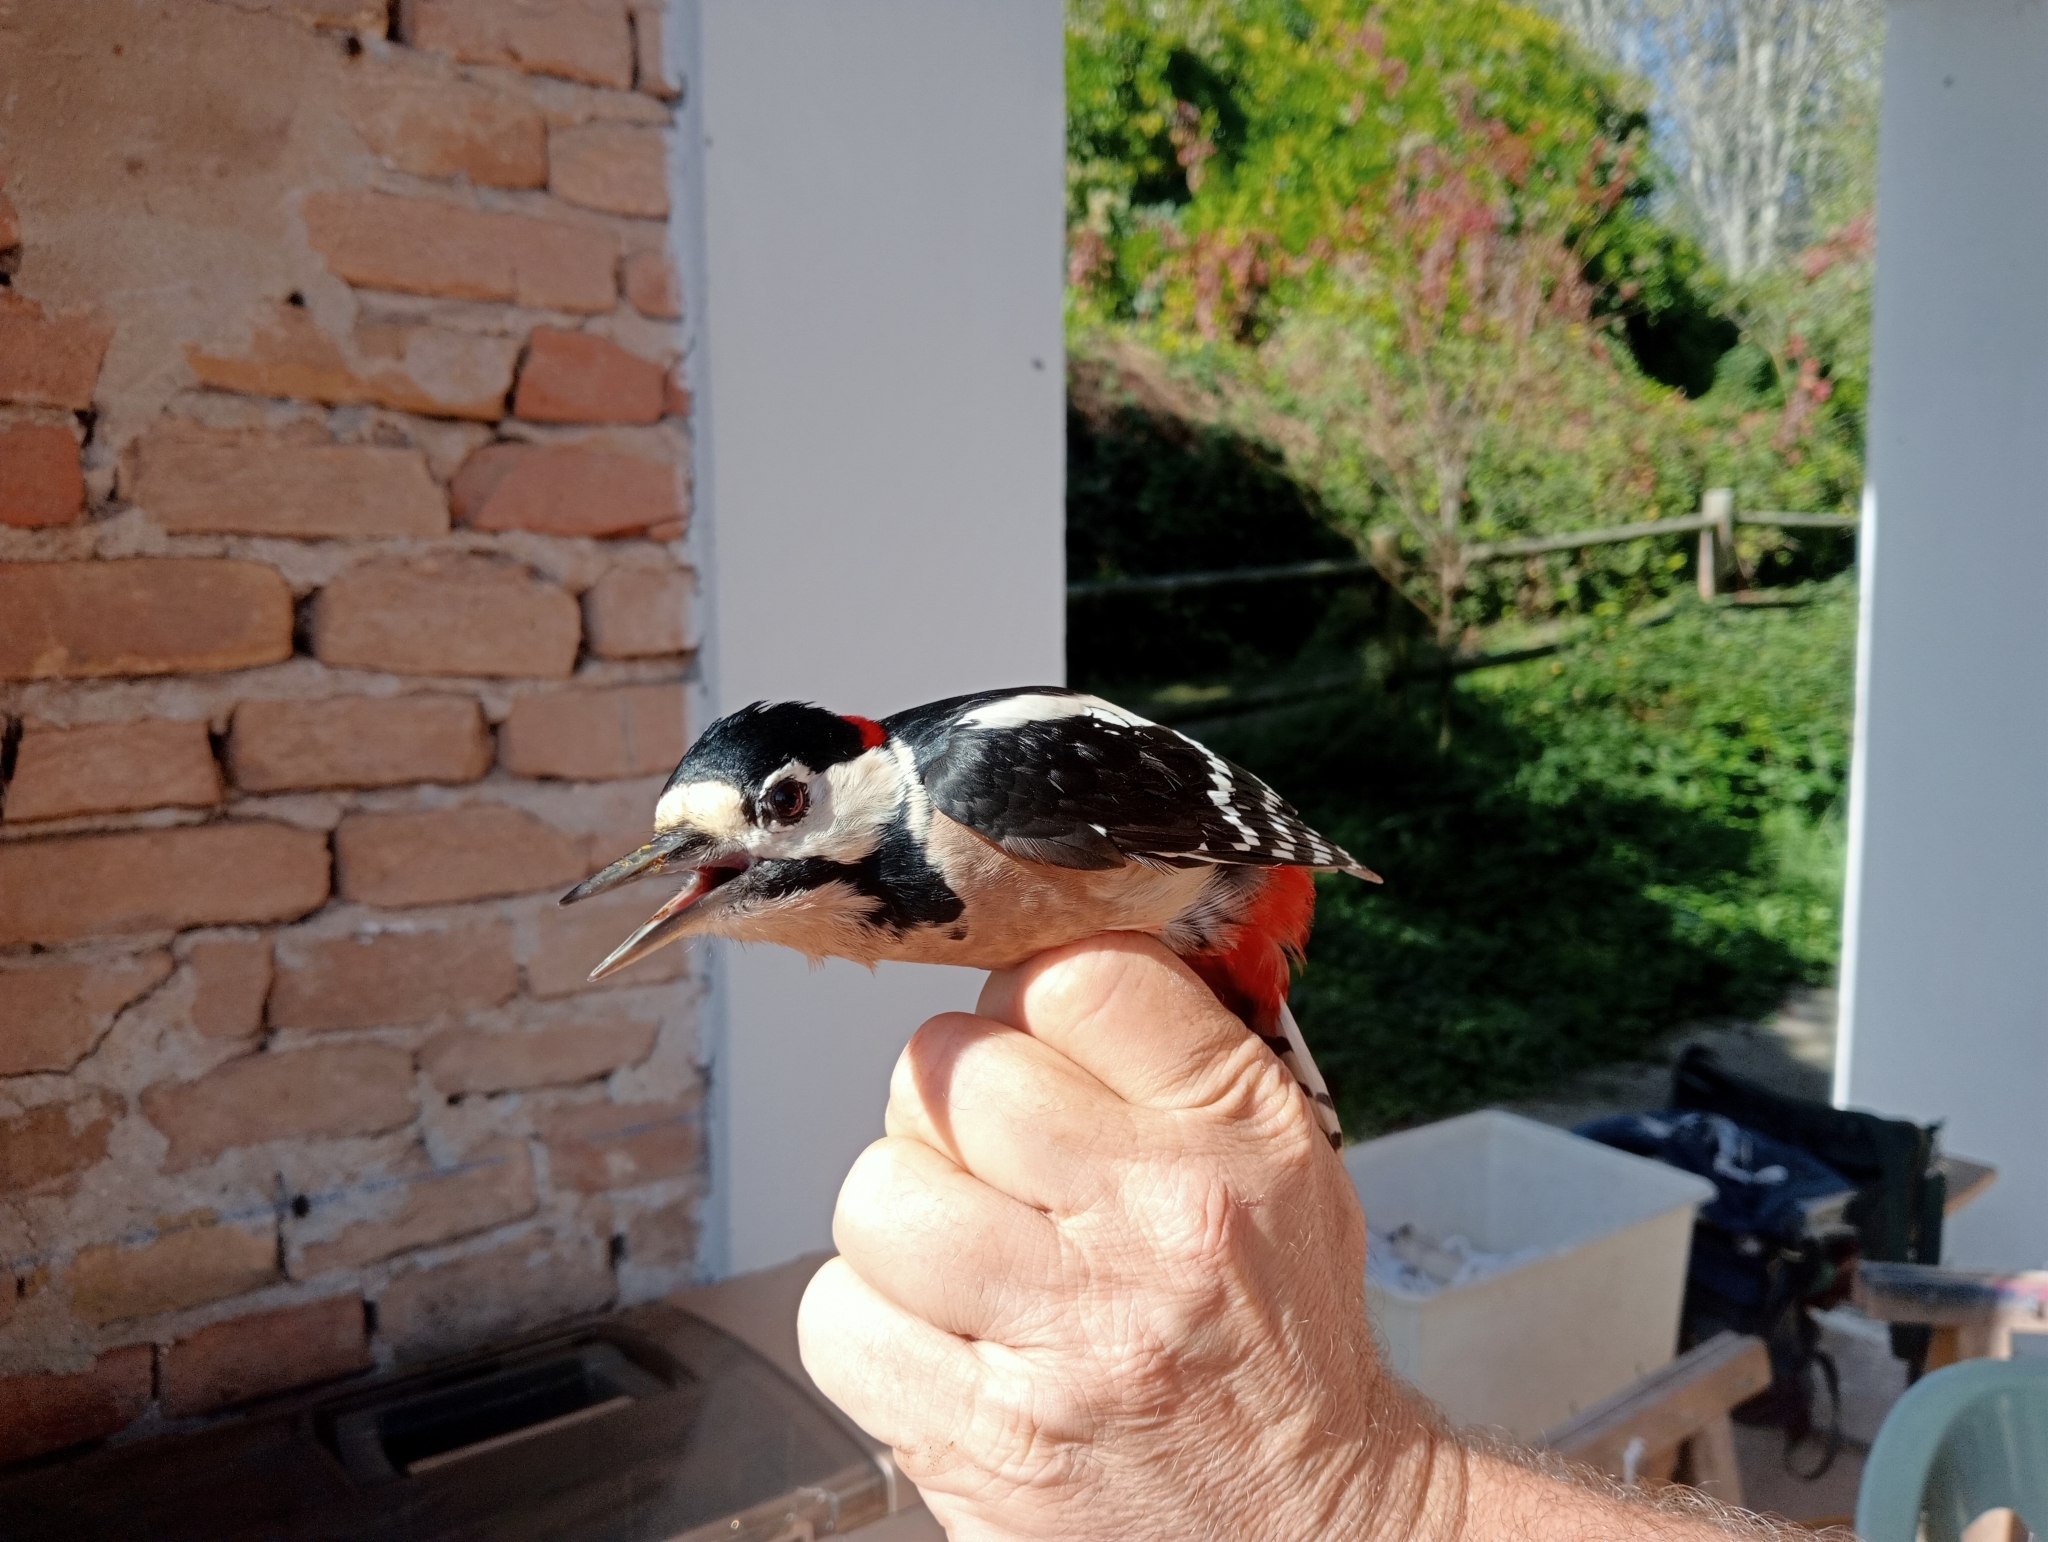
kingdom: Animalia
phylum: Chordata
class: Aves
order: Piciformes
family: Picidae
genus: Dendrocopos
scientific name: Dendrocopos major
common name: Great spotted woodpecker
